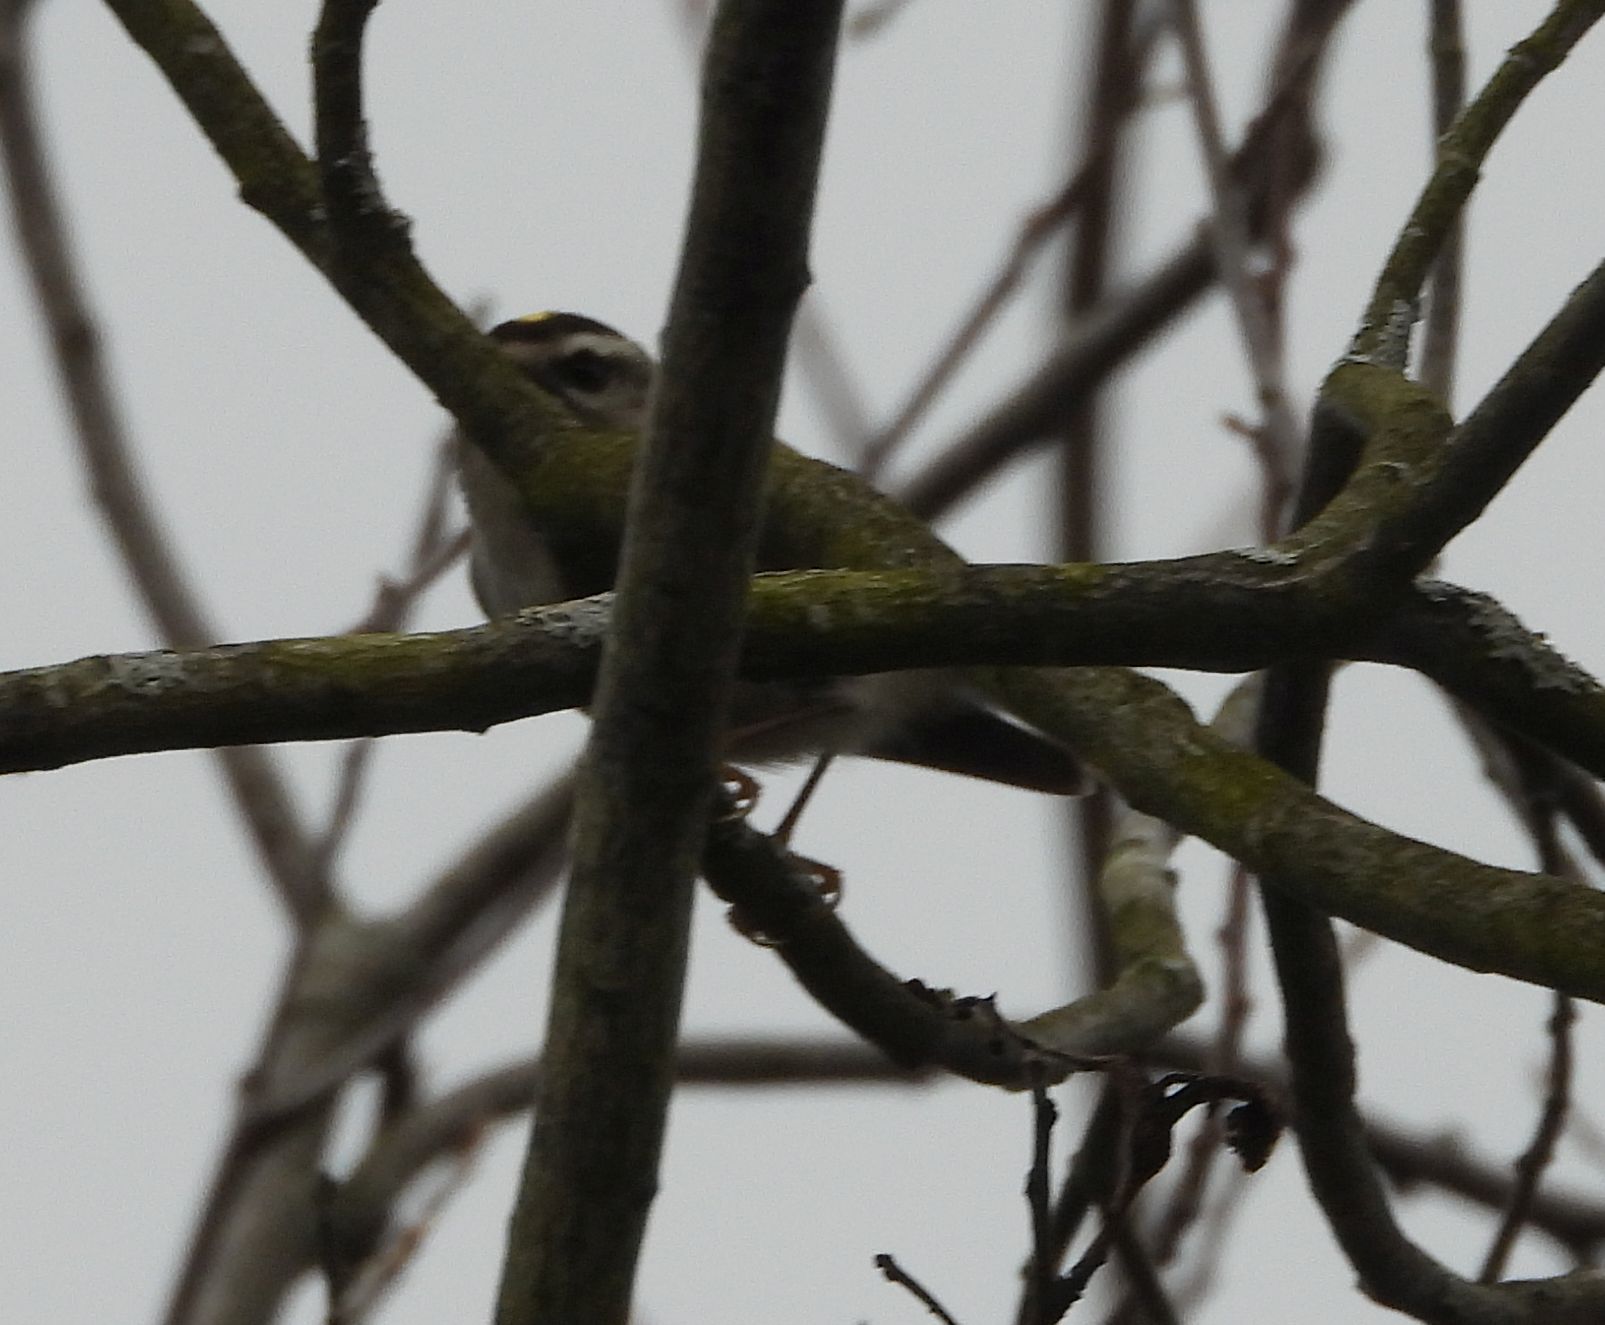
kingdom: Animalia
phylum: Chordata
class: Aves
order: Passeriformes
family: Regulidae
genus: Regulus
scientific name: Regulus satrapa
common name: Golden-crowned kinglet
